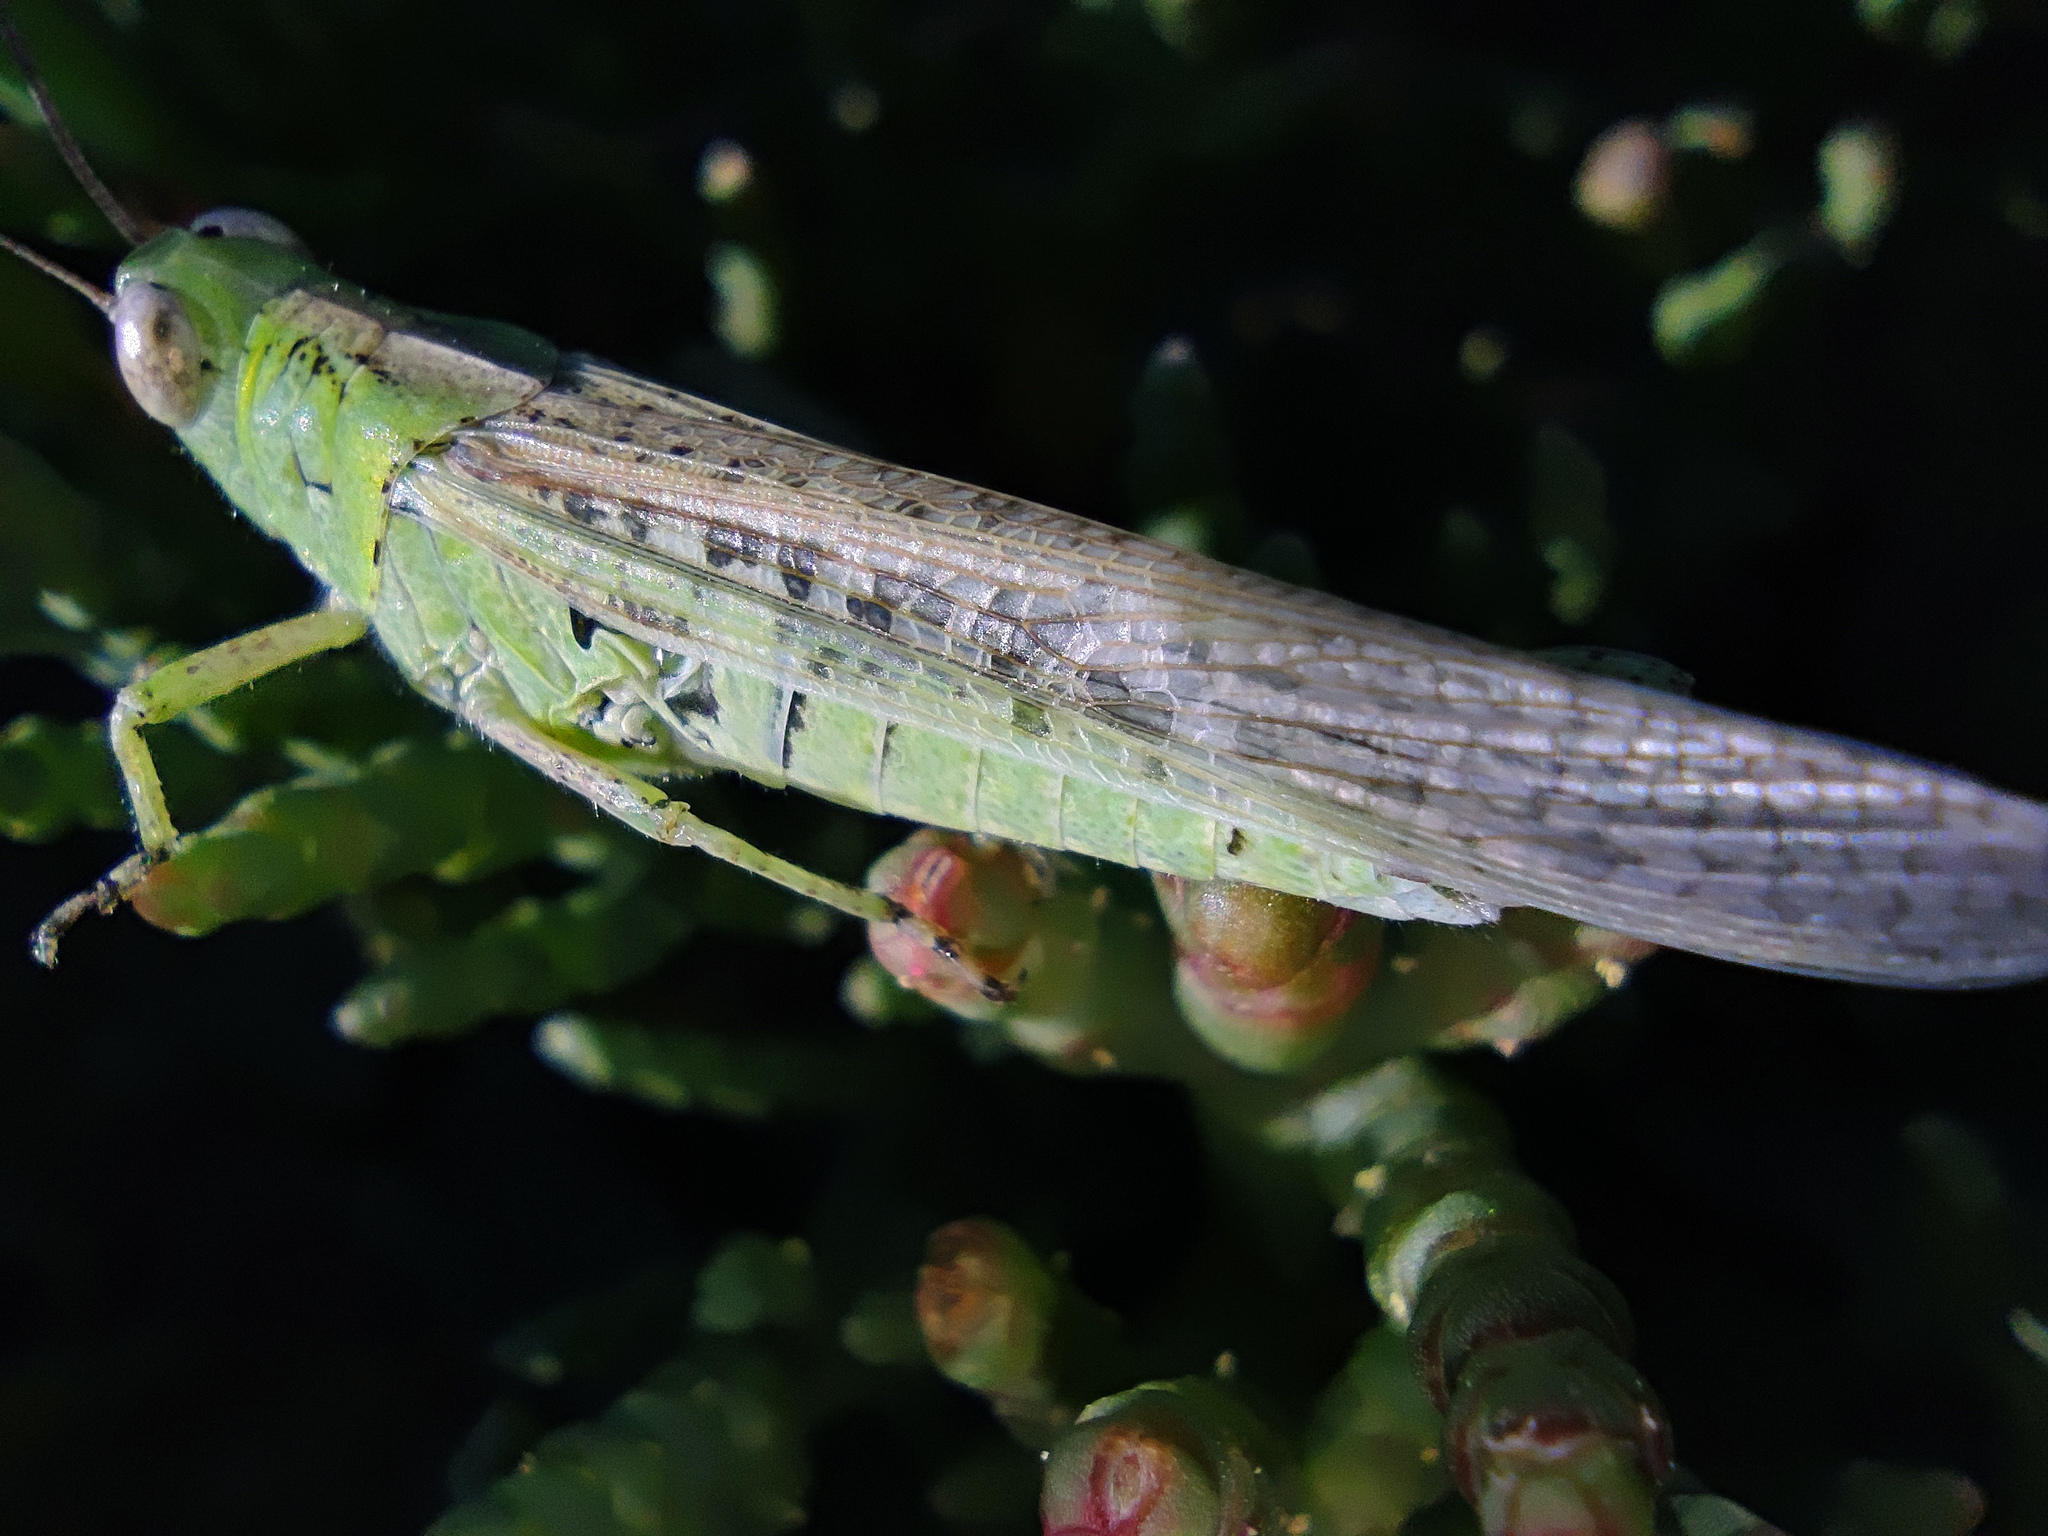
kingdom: Animalia
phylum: Arthropoda
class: Insecta
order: Orthoptera
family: Acrididae
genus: Aiolopus
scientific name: Aiolopus thalassinus
